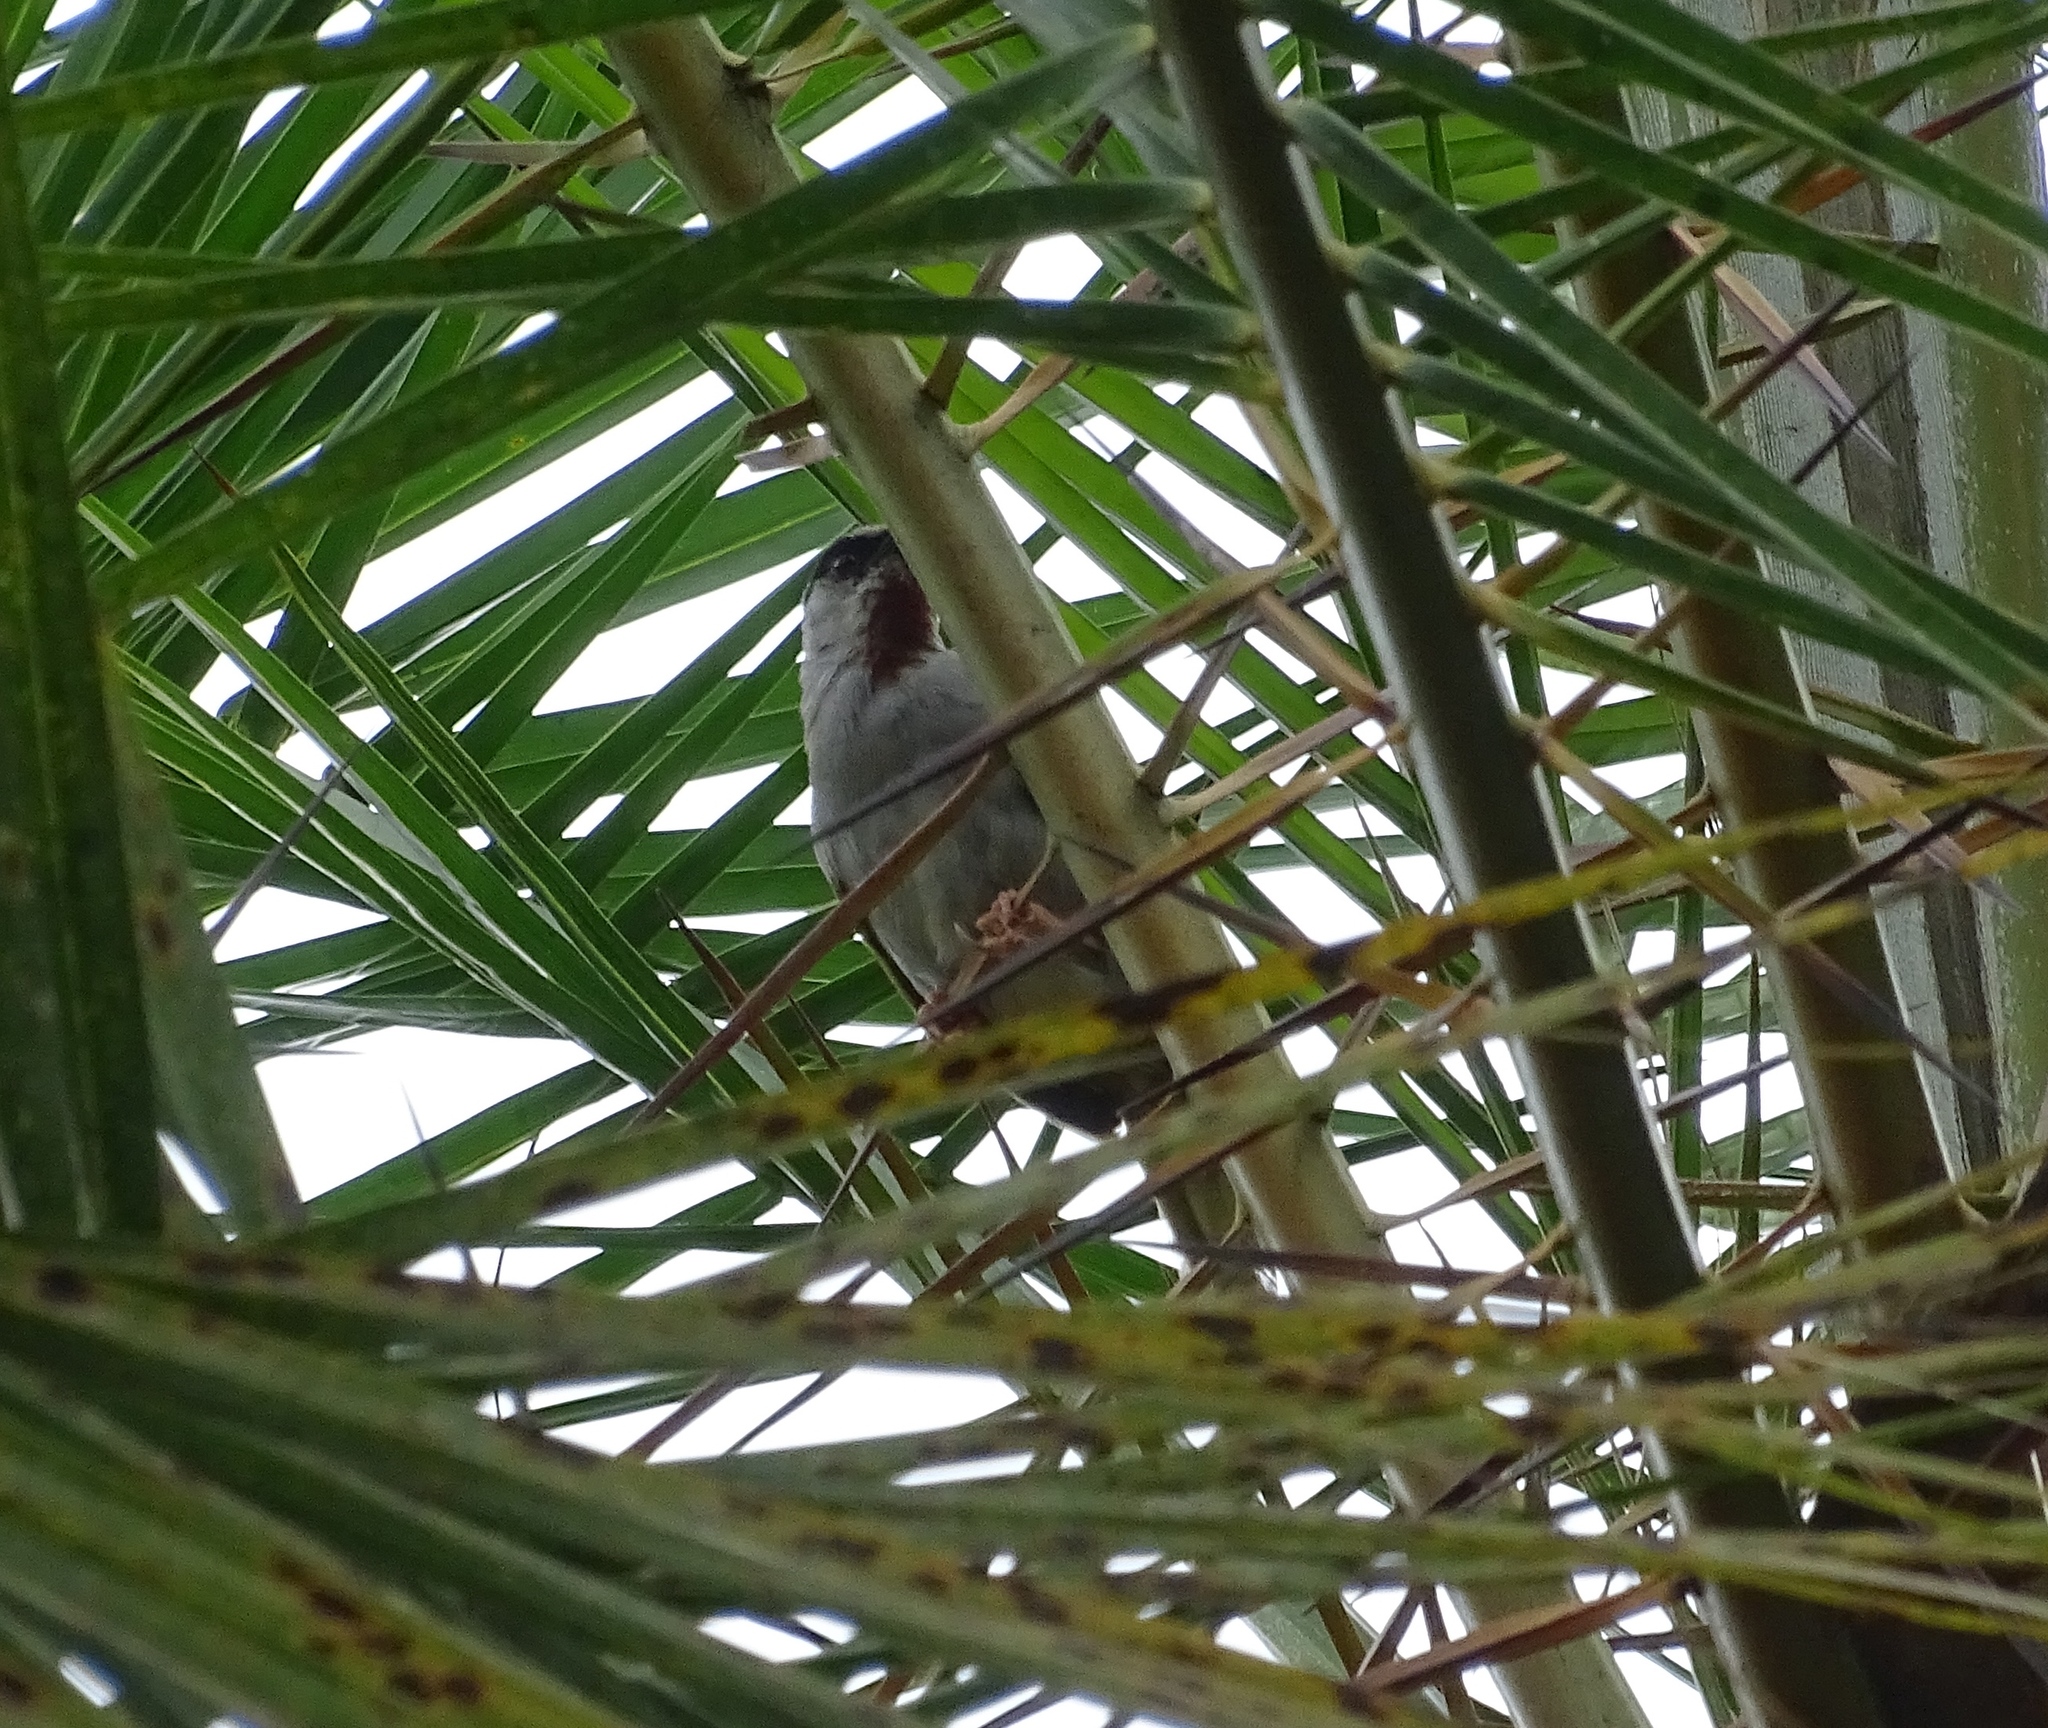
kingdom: Animalia
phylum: Chordata
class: Aves
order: Passeriformes
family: Cisticolidae
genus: Eminia
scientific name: Eminia lepida
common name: Grey-capped warbler
